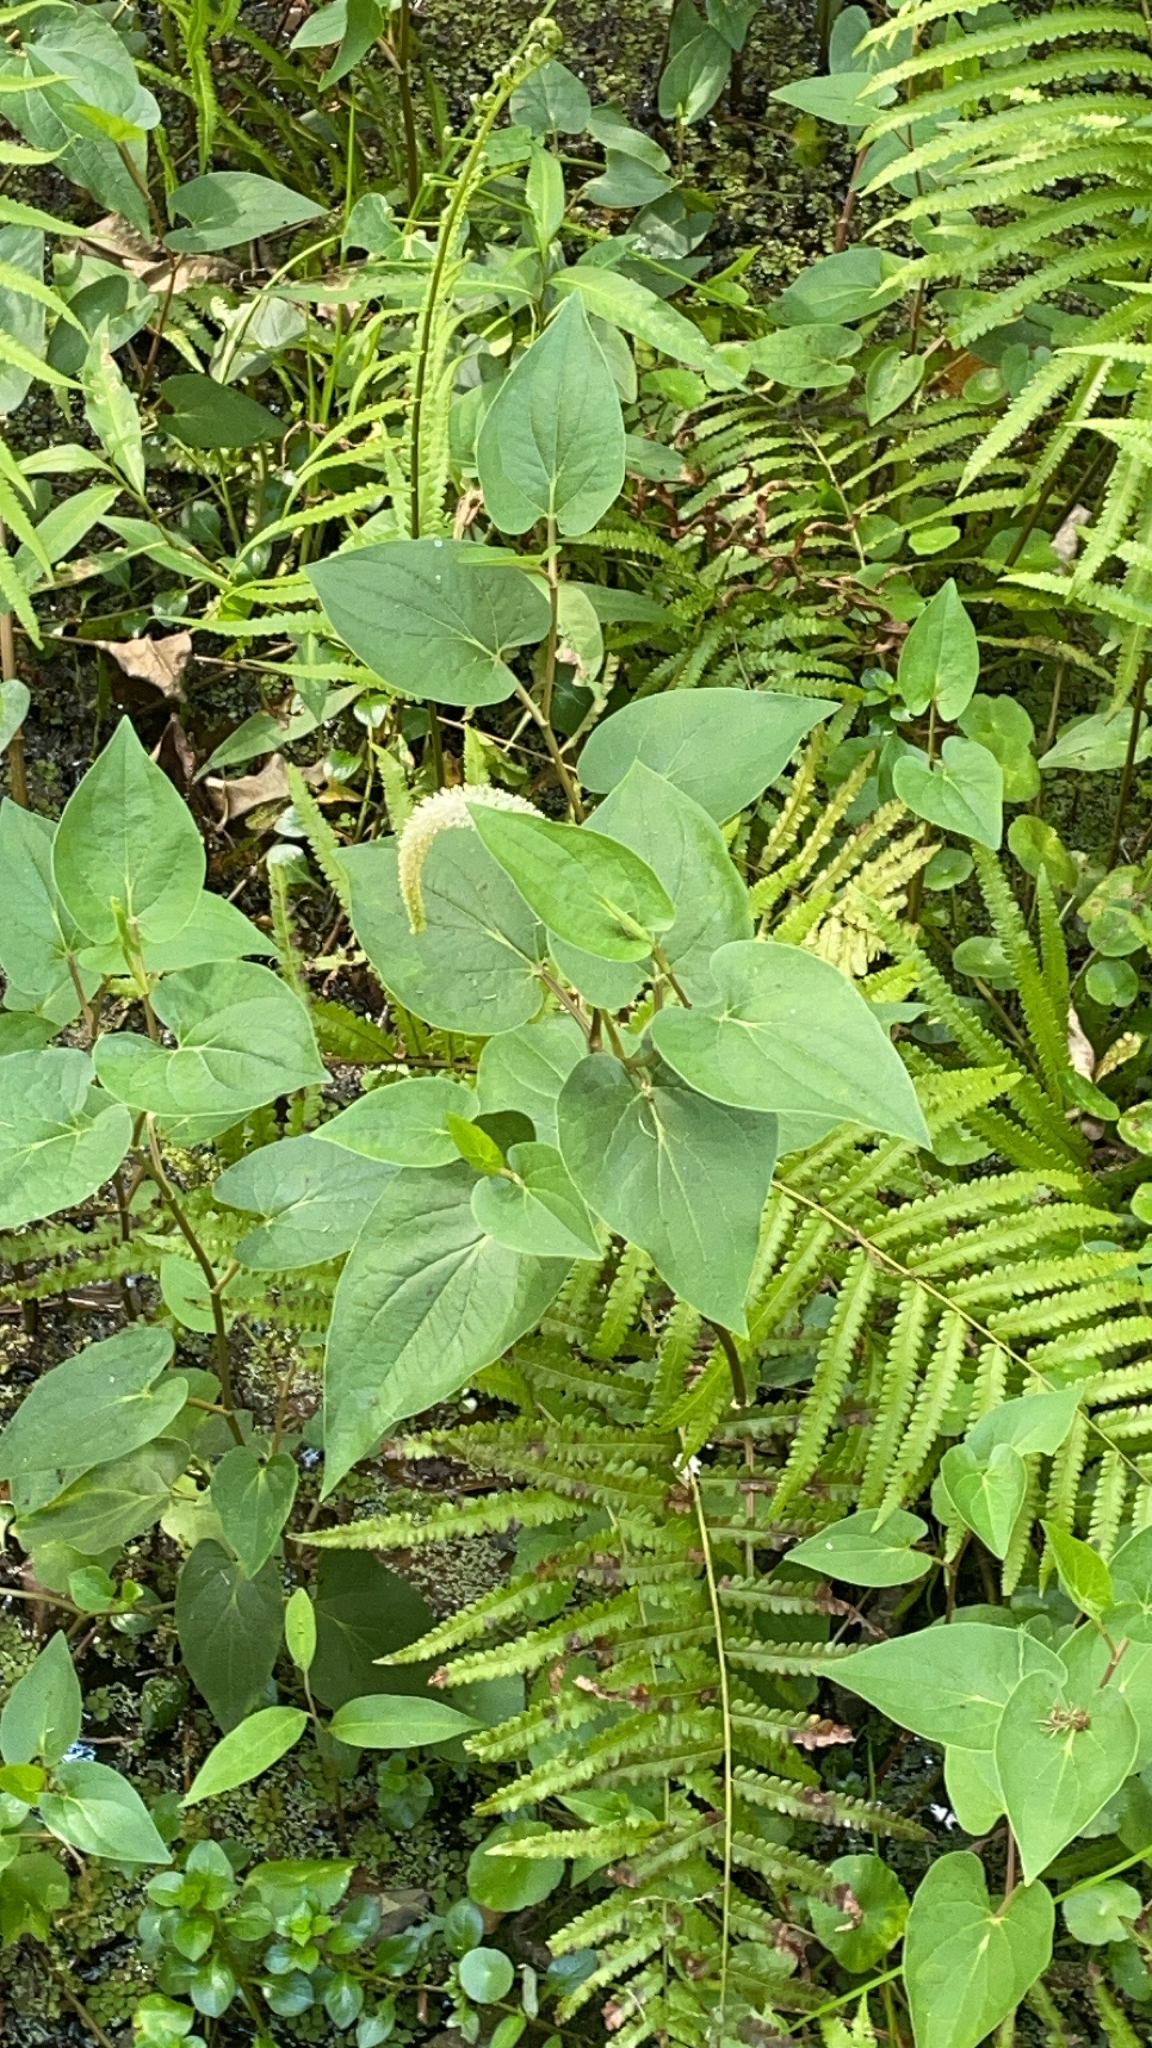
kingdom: Plantae
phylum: Tracheophyta
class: Magnoliopsida
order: Piperales
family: Saururaceae
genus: Saururus
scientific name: Saururus cernuus
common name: Lizard's-tail
